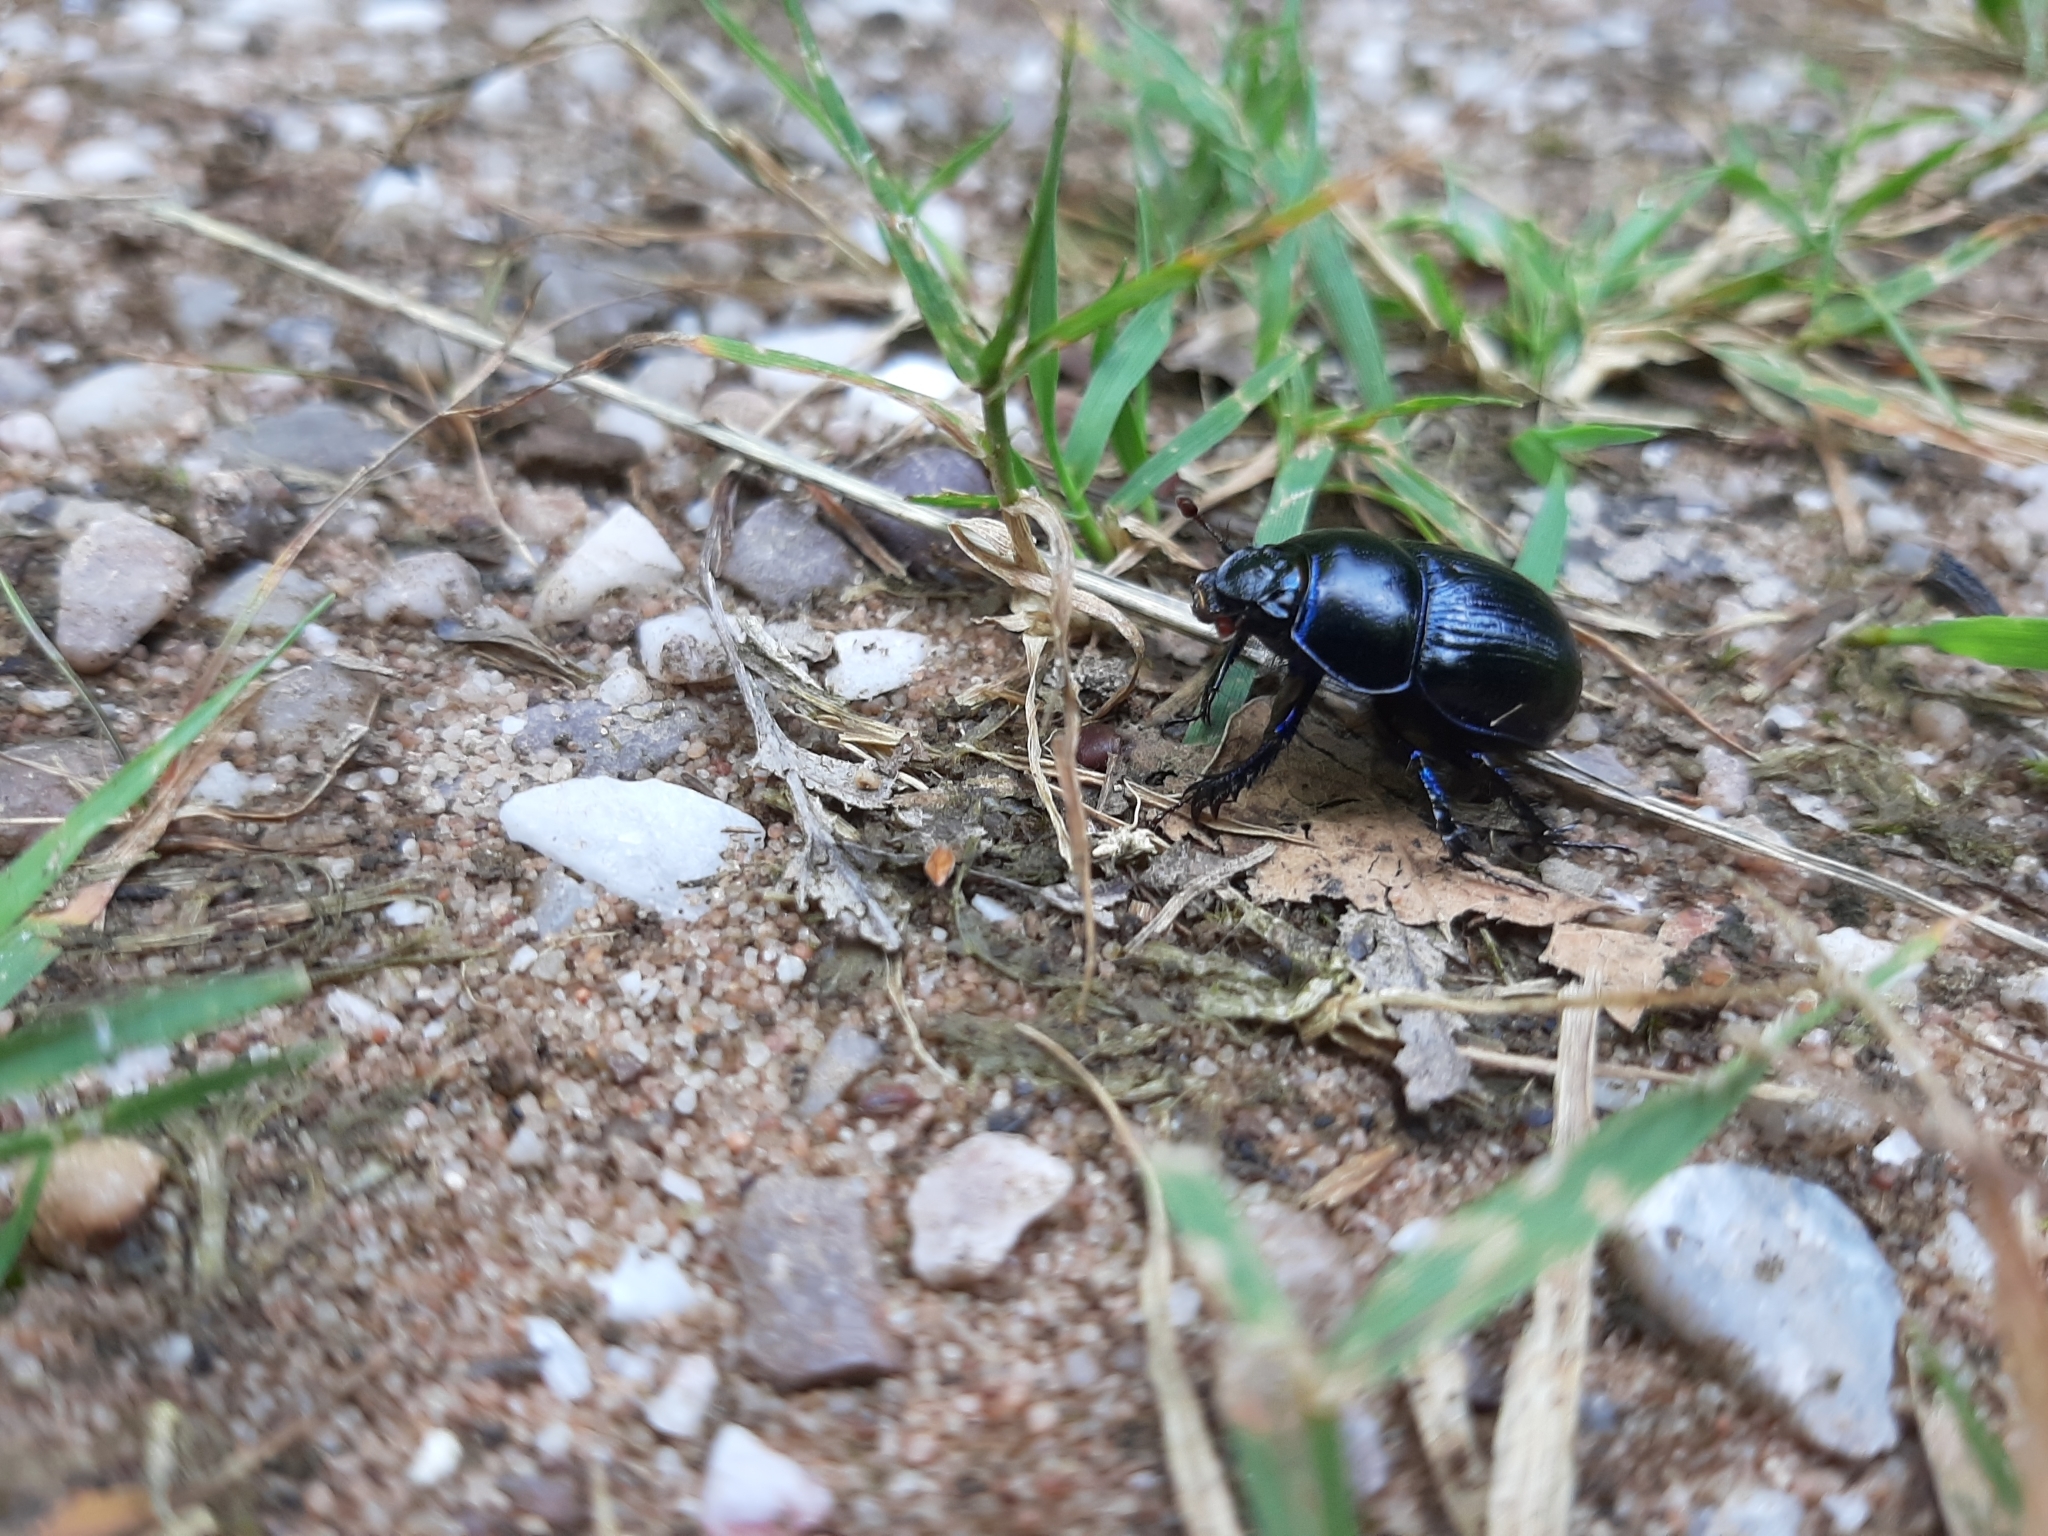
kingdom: Animalia
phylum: Arthropoda
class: Insecta
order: Coleoptera
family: Geotrupidae
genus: Anoplotrupes
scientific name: Anoplotrupes stercorosus
